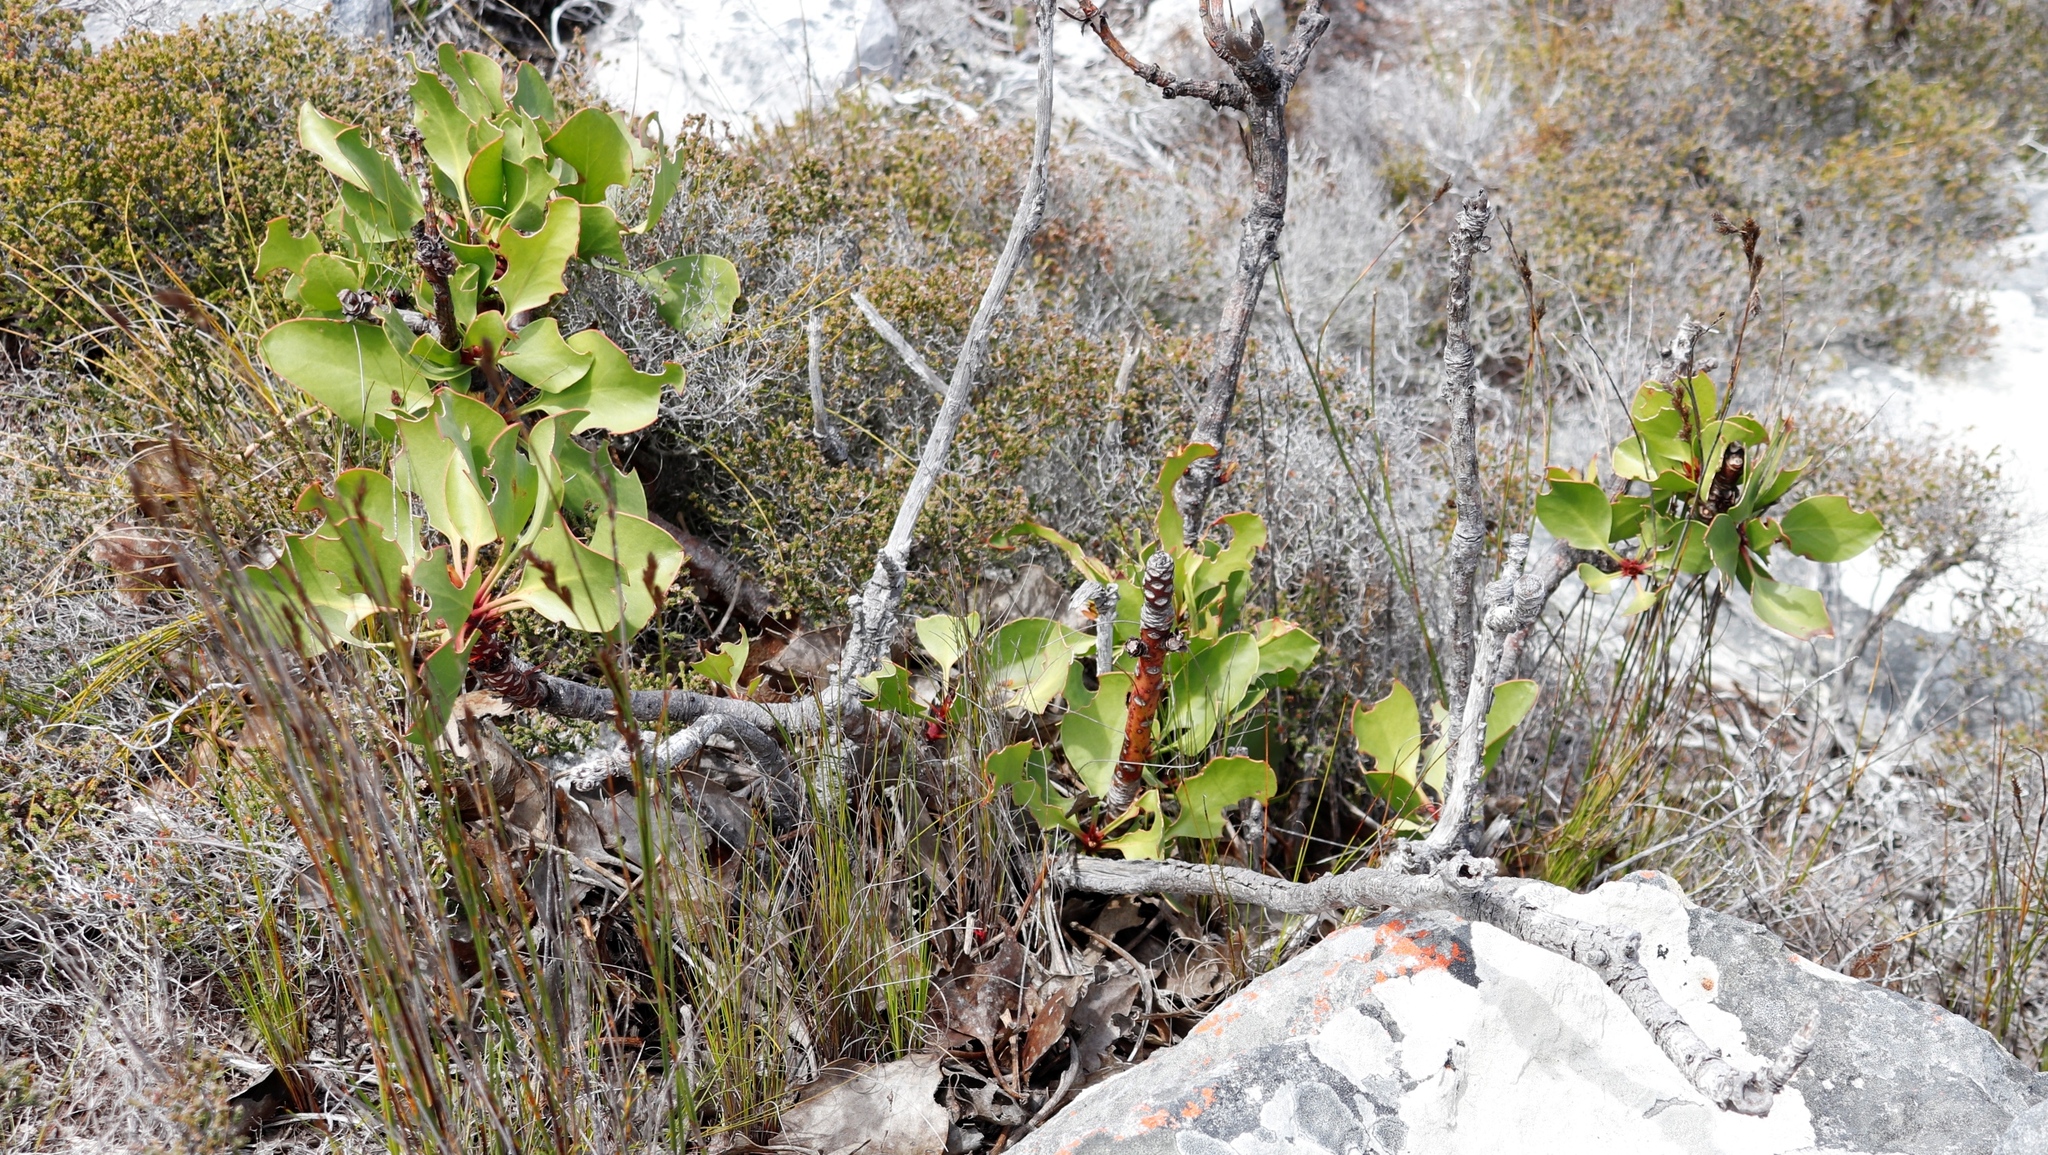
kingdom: Plantae
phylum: Tracheophyta
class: Magnoliopsida
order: Proteales
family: Proteaceae
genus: Protea
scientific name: Protea cynaroides
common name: King protea
